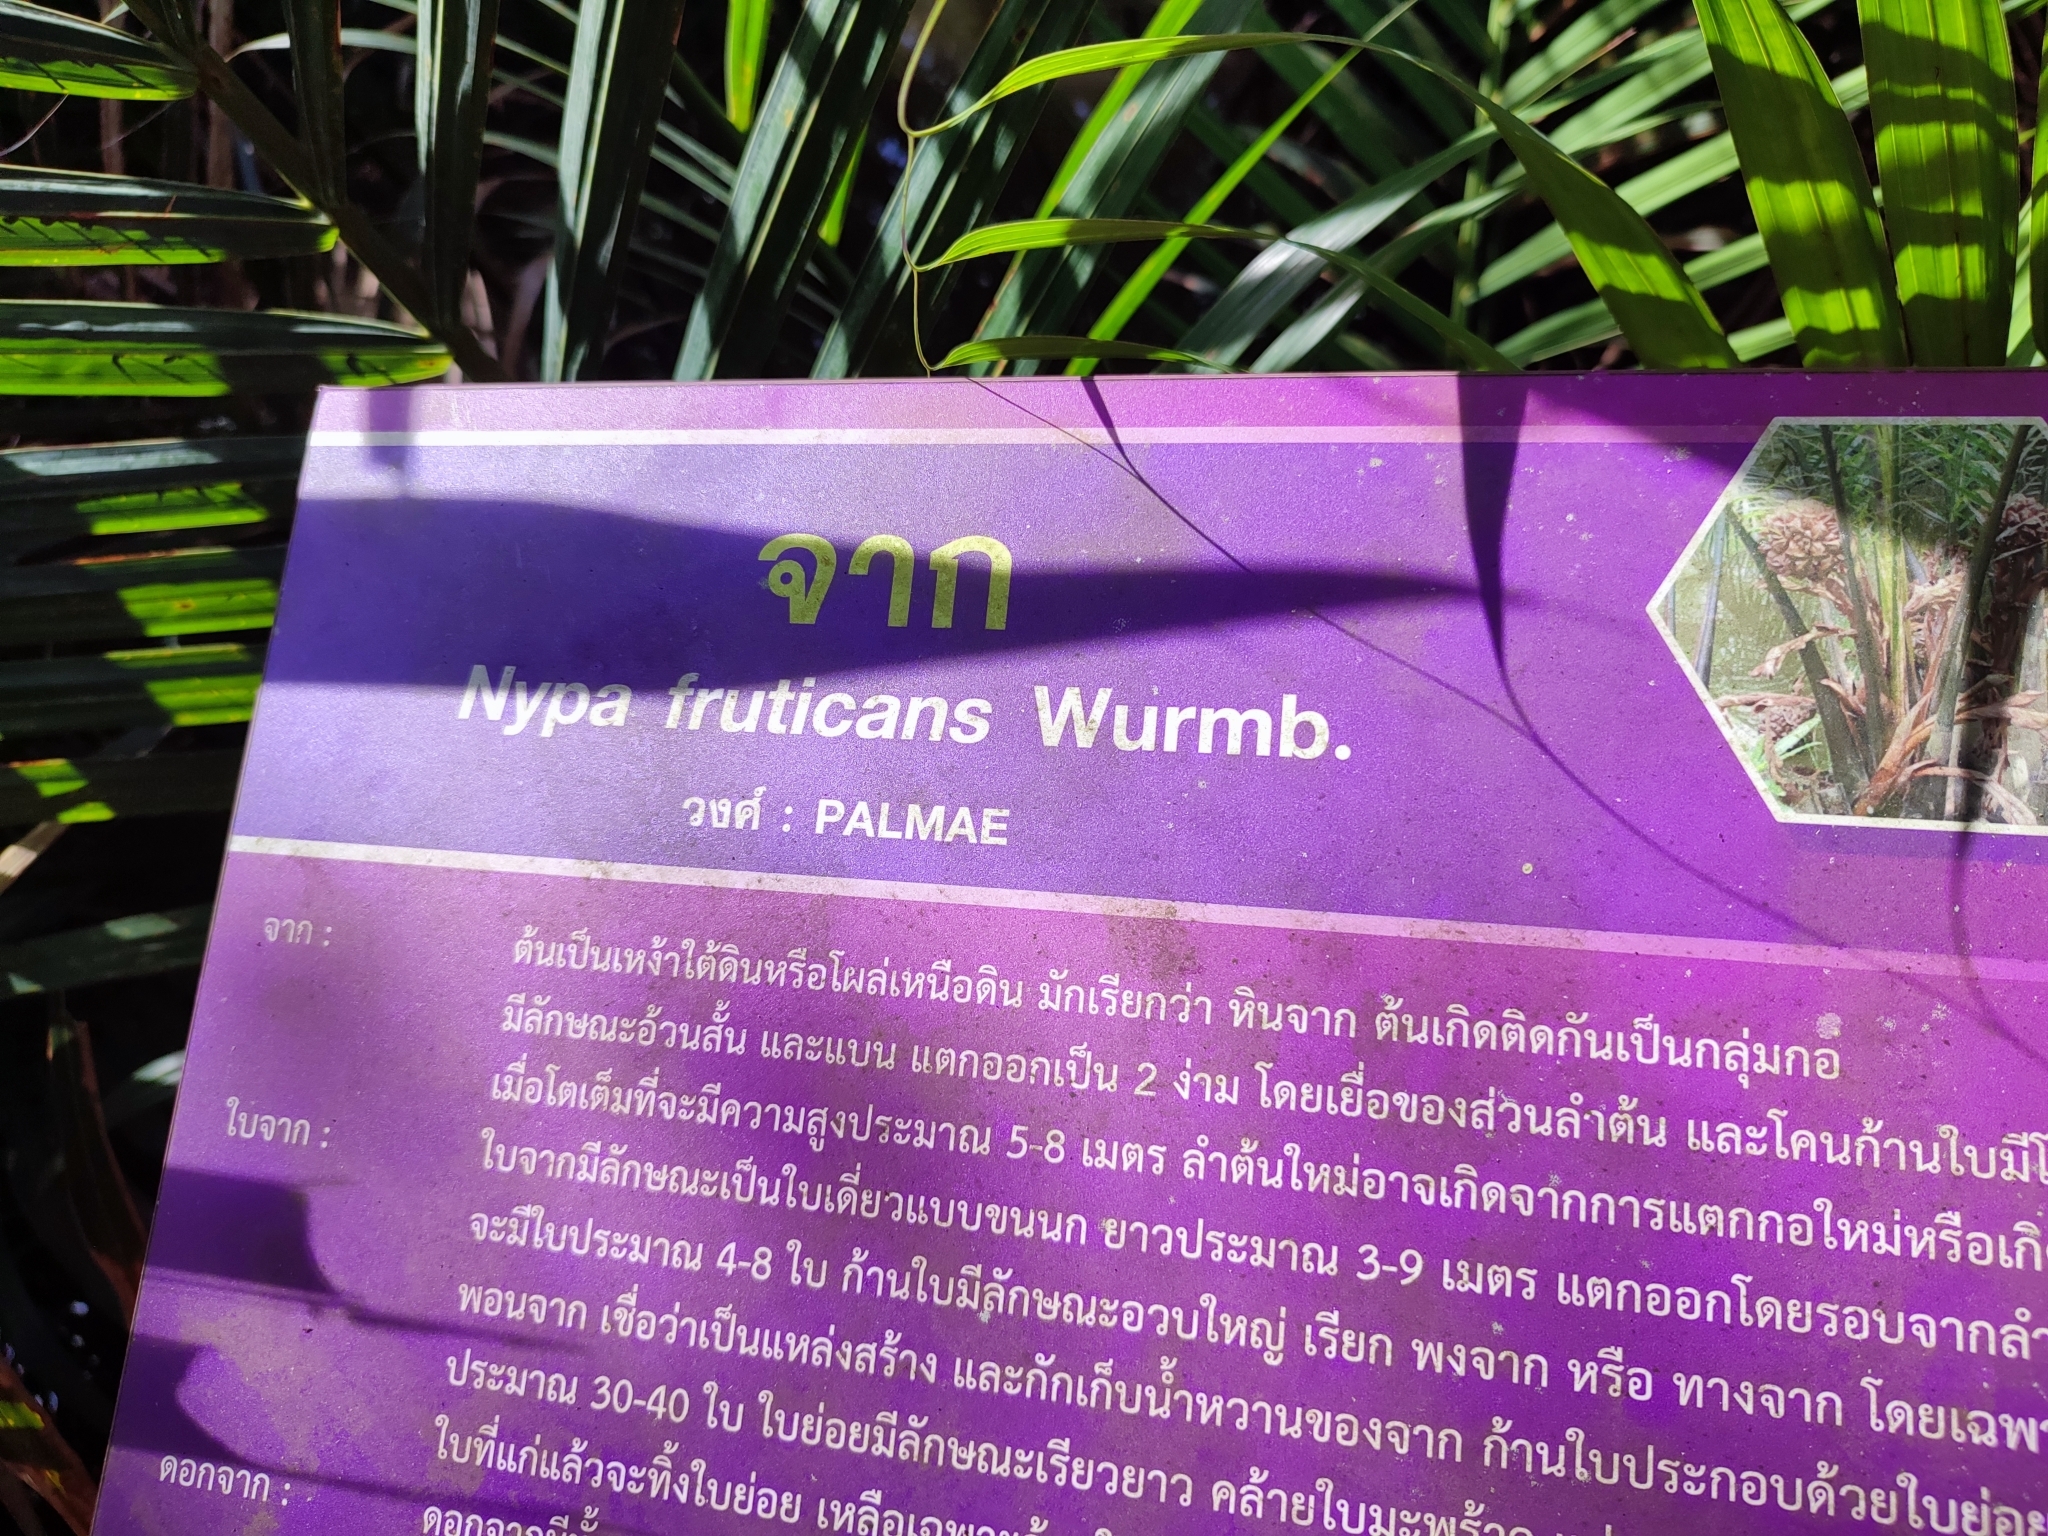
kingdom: Plantae
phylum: Tracheophyta
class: Liliopsida
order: Arecales
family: Arecaceae
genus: Nypa
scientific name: Nypa fruticans
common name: Mangrove palm
